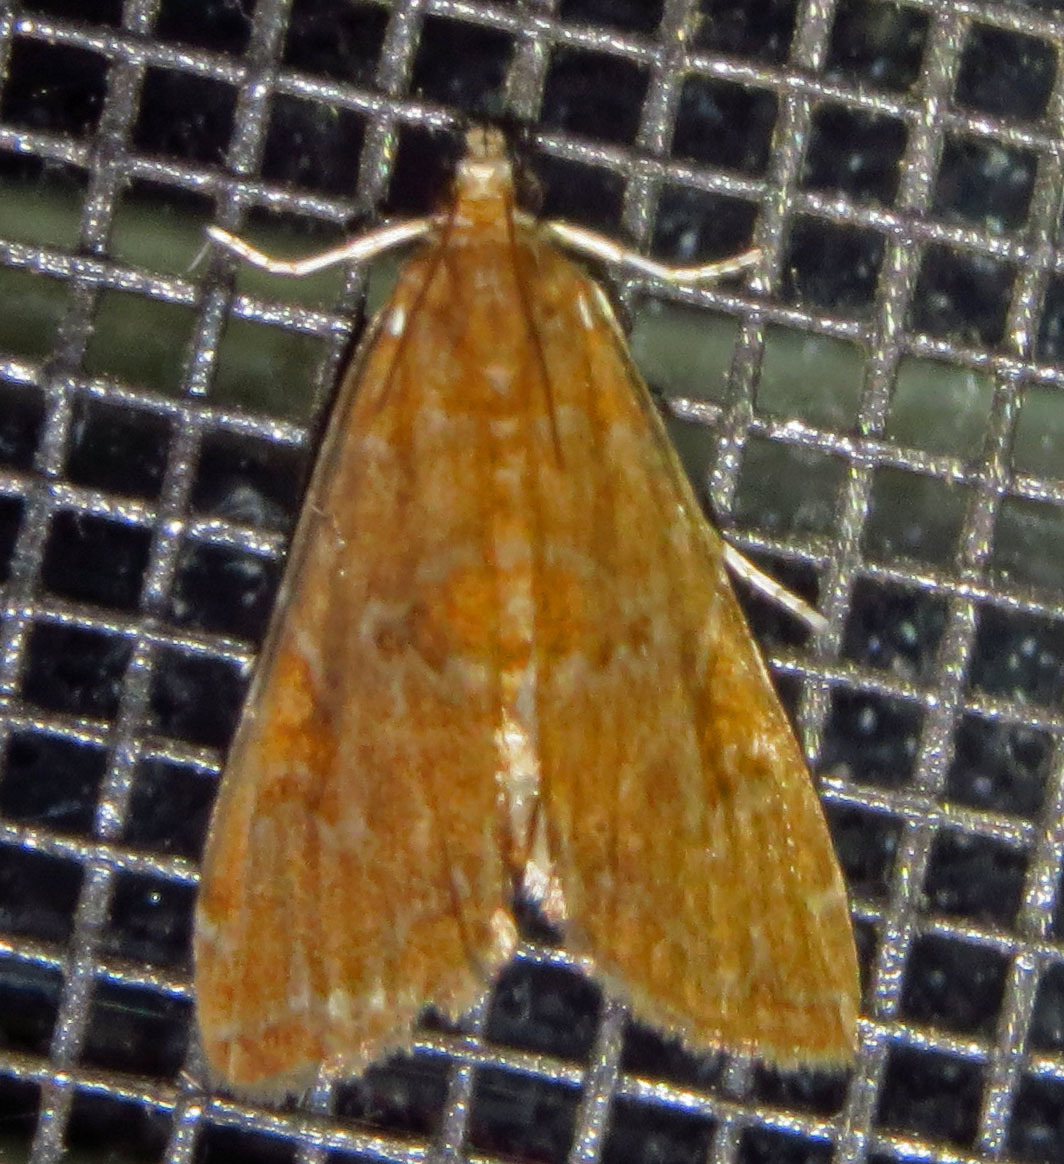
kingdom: Animalia
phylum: Arthropoda
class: Insecta
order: Lepidoptera
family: Crambidae
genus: Elophila
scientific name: Elophila gyralis
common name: Waterlily borer moth
